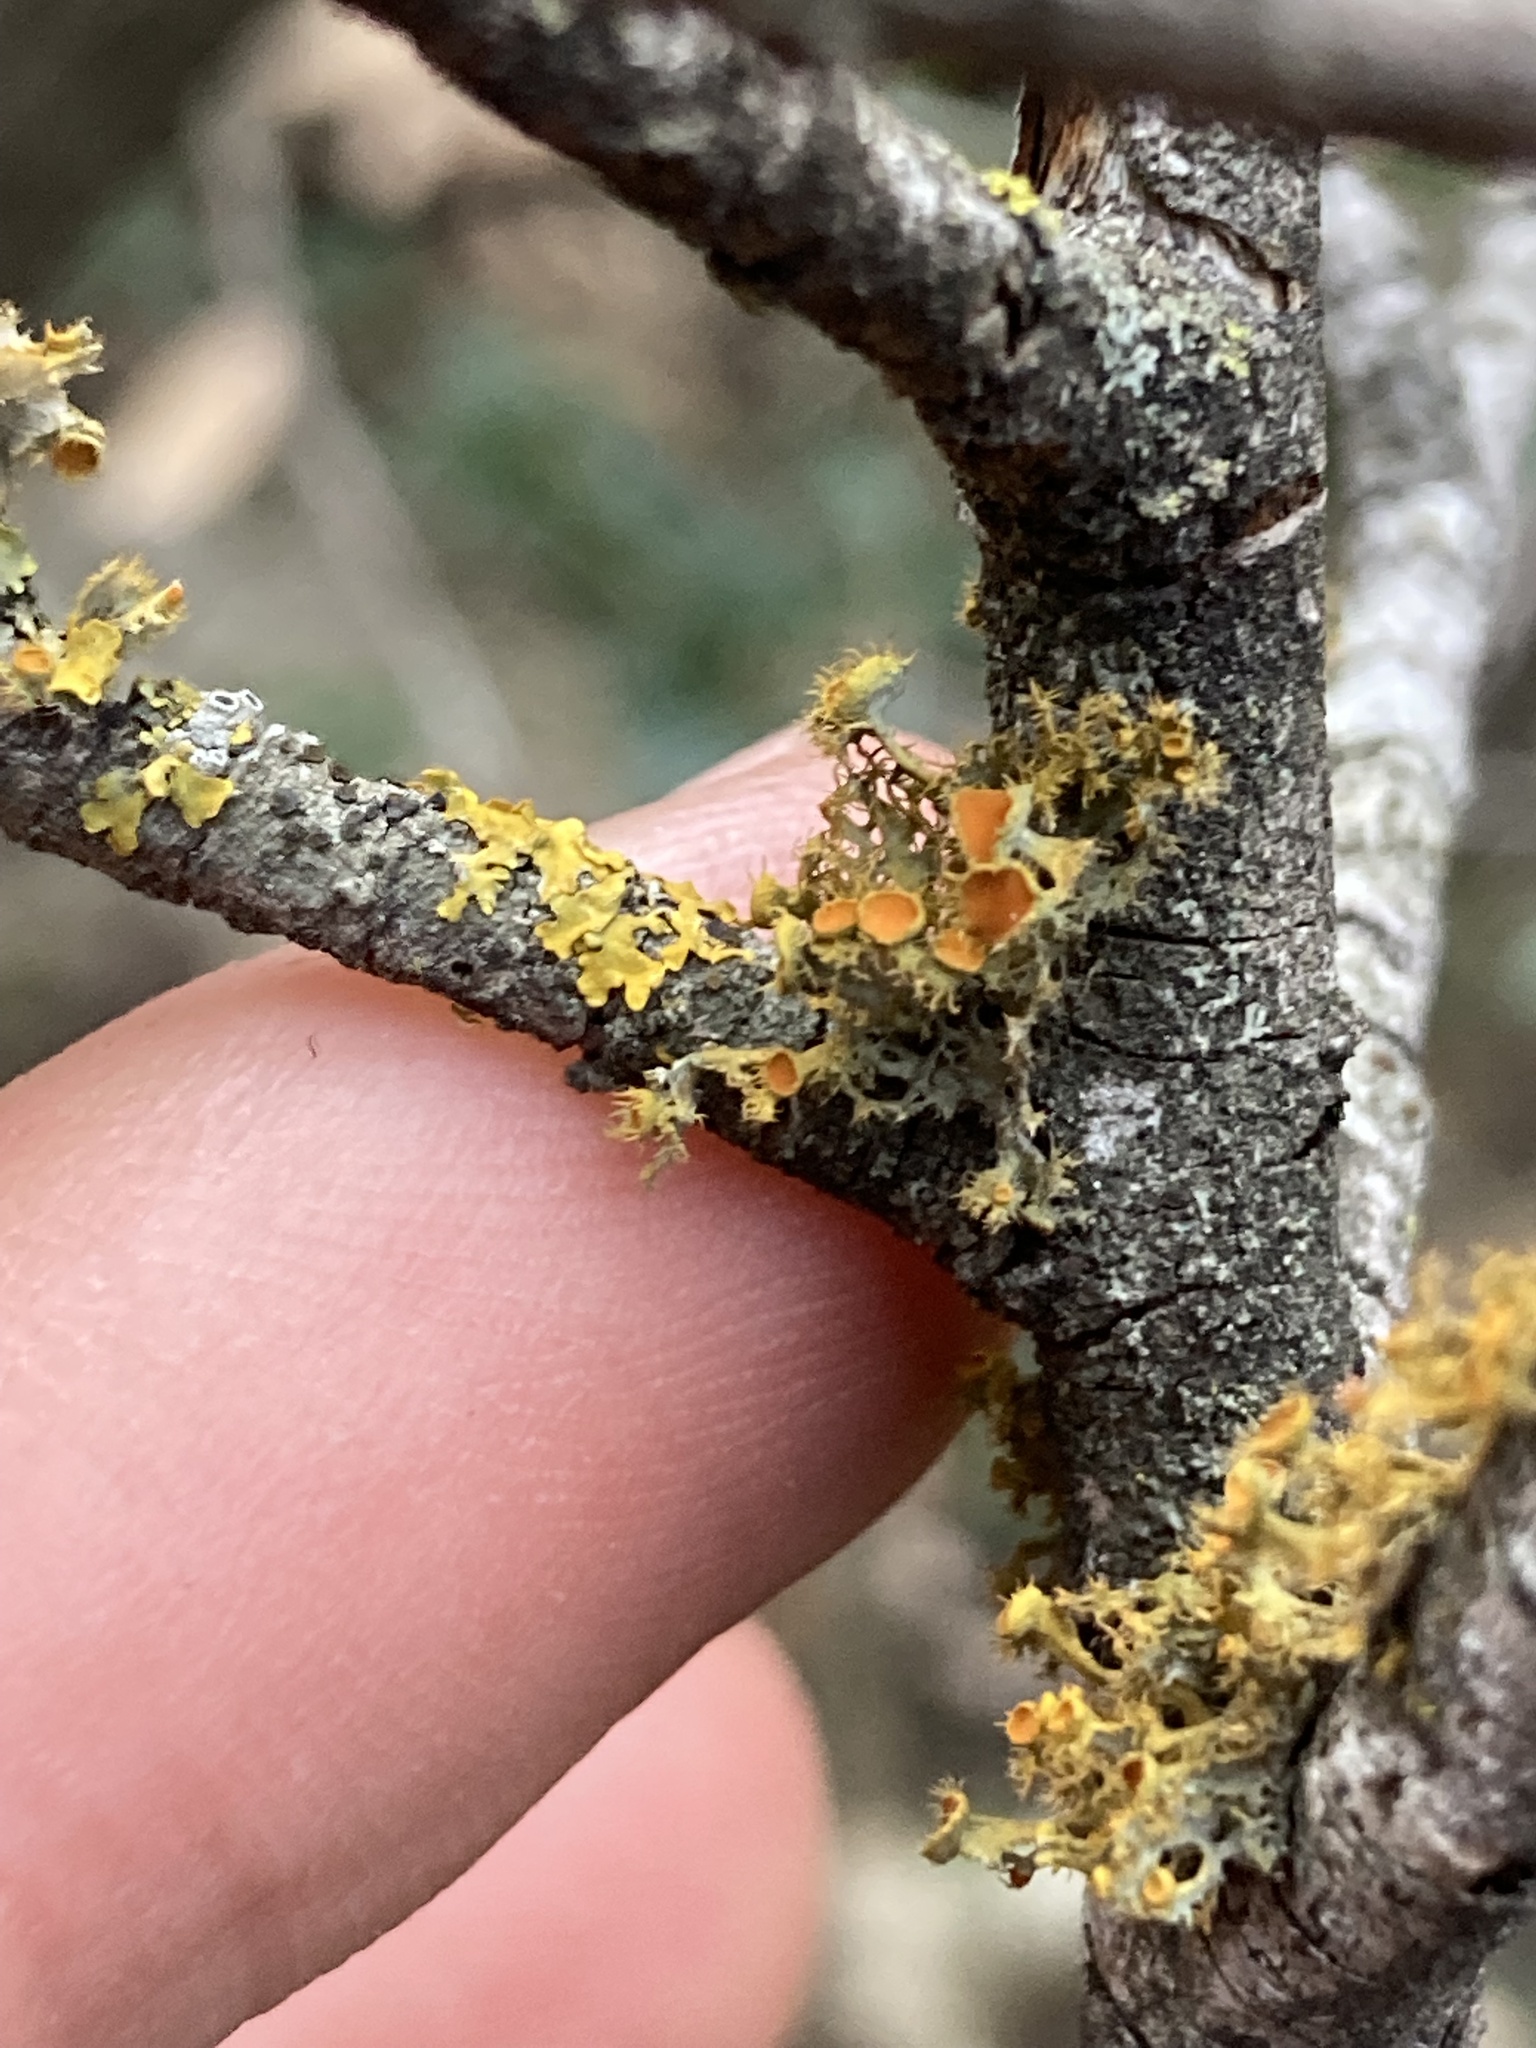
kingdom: Fungi
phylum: Ascomycota
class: Lecanoromycetes
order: Teloschistales
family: Teloschistaceae
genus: Niorma
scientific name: Niorma chrysophthalma
